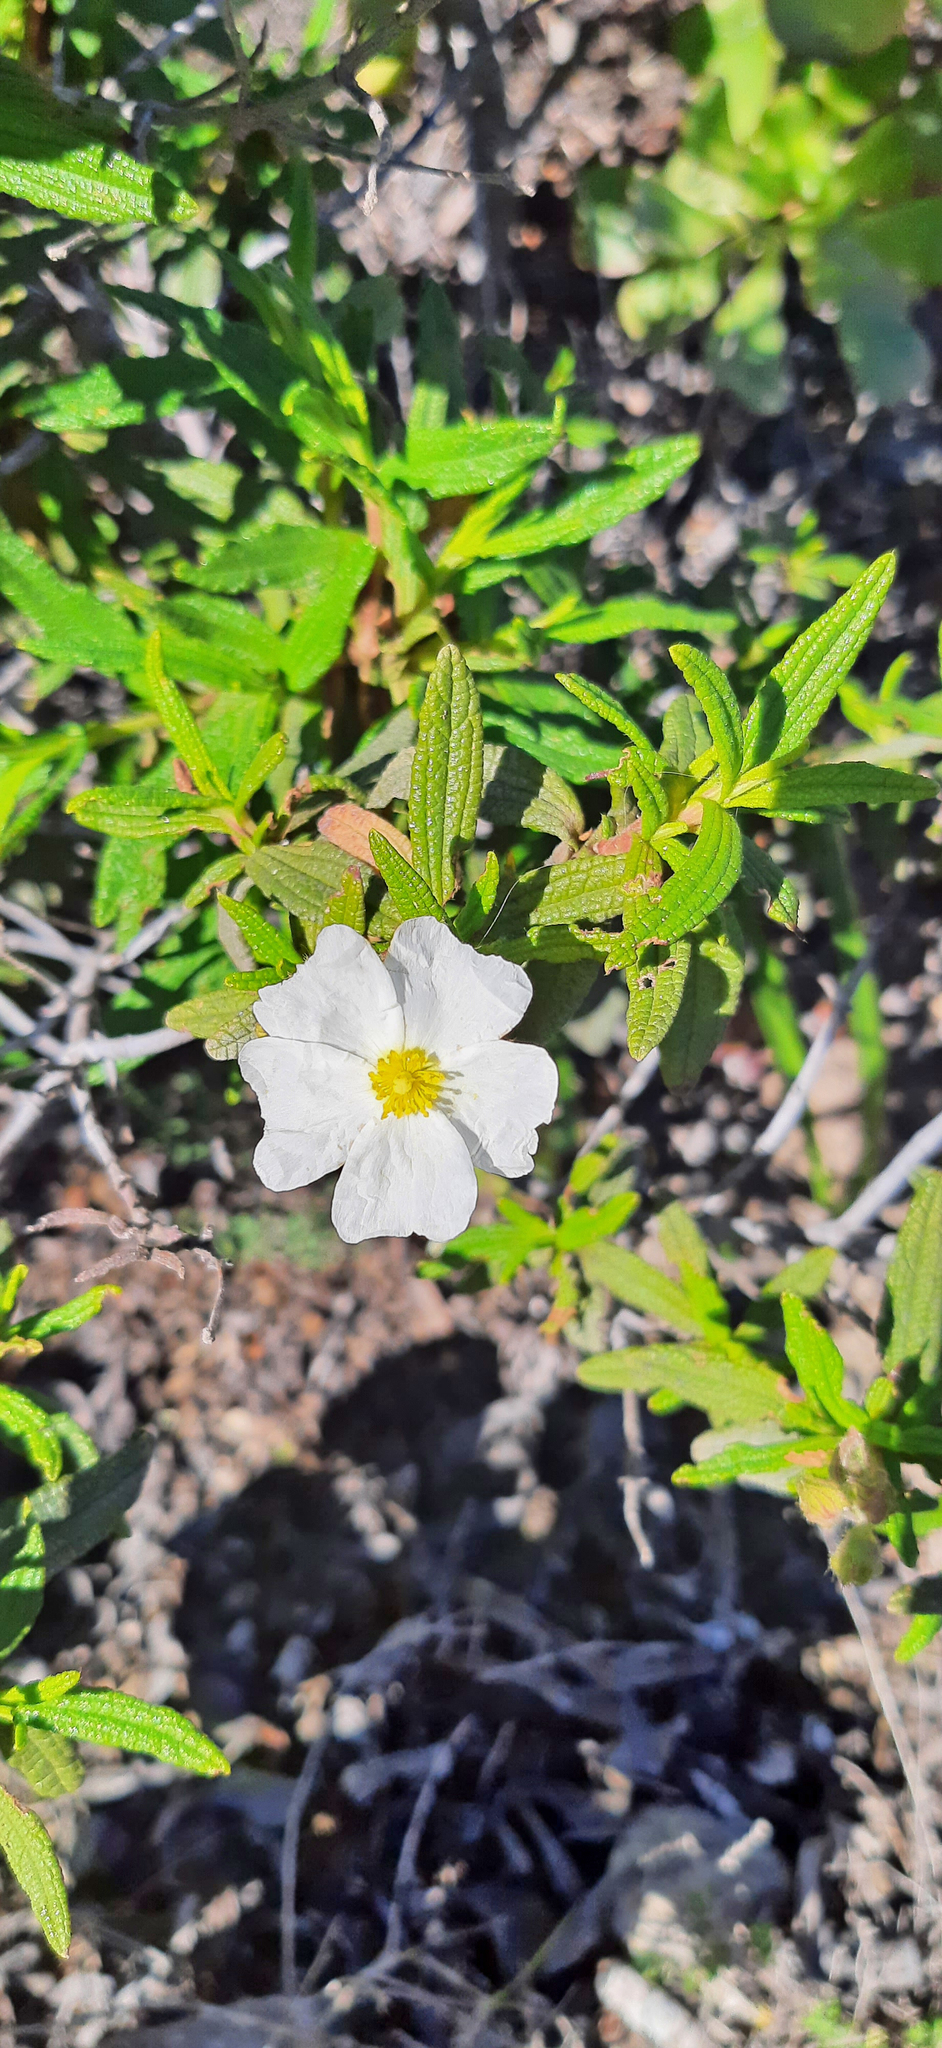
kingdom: Plantae
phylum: Tracheophyta
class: Magnoliopsida
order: Malvales
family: Cistaceae
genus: Cistus
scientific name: Cistus monspeliensis
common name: Montpelier cistus
